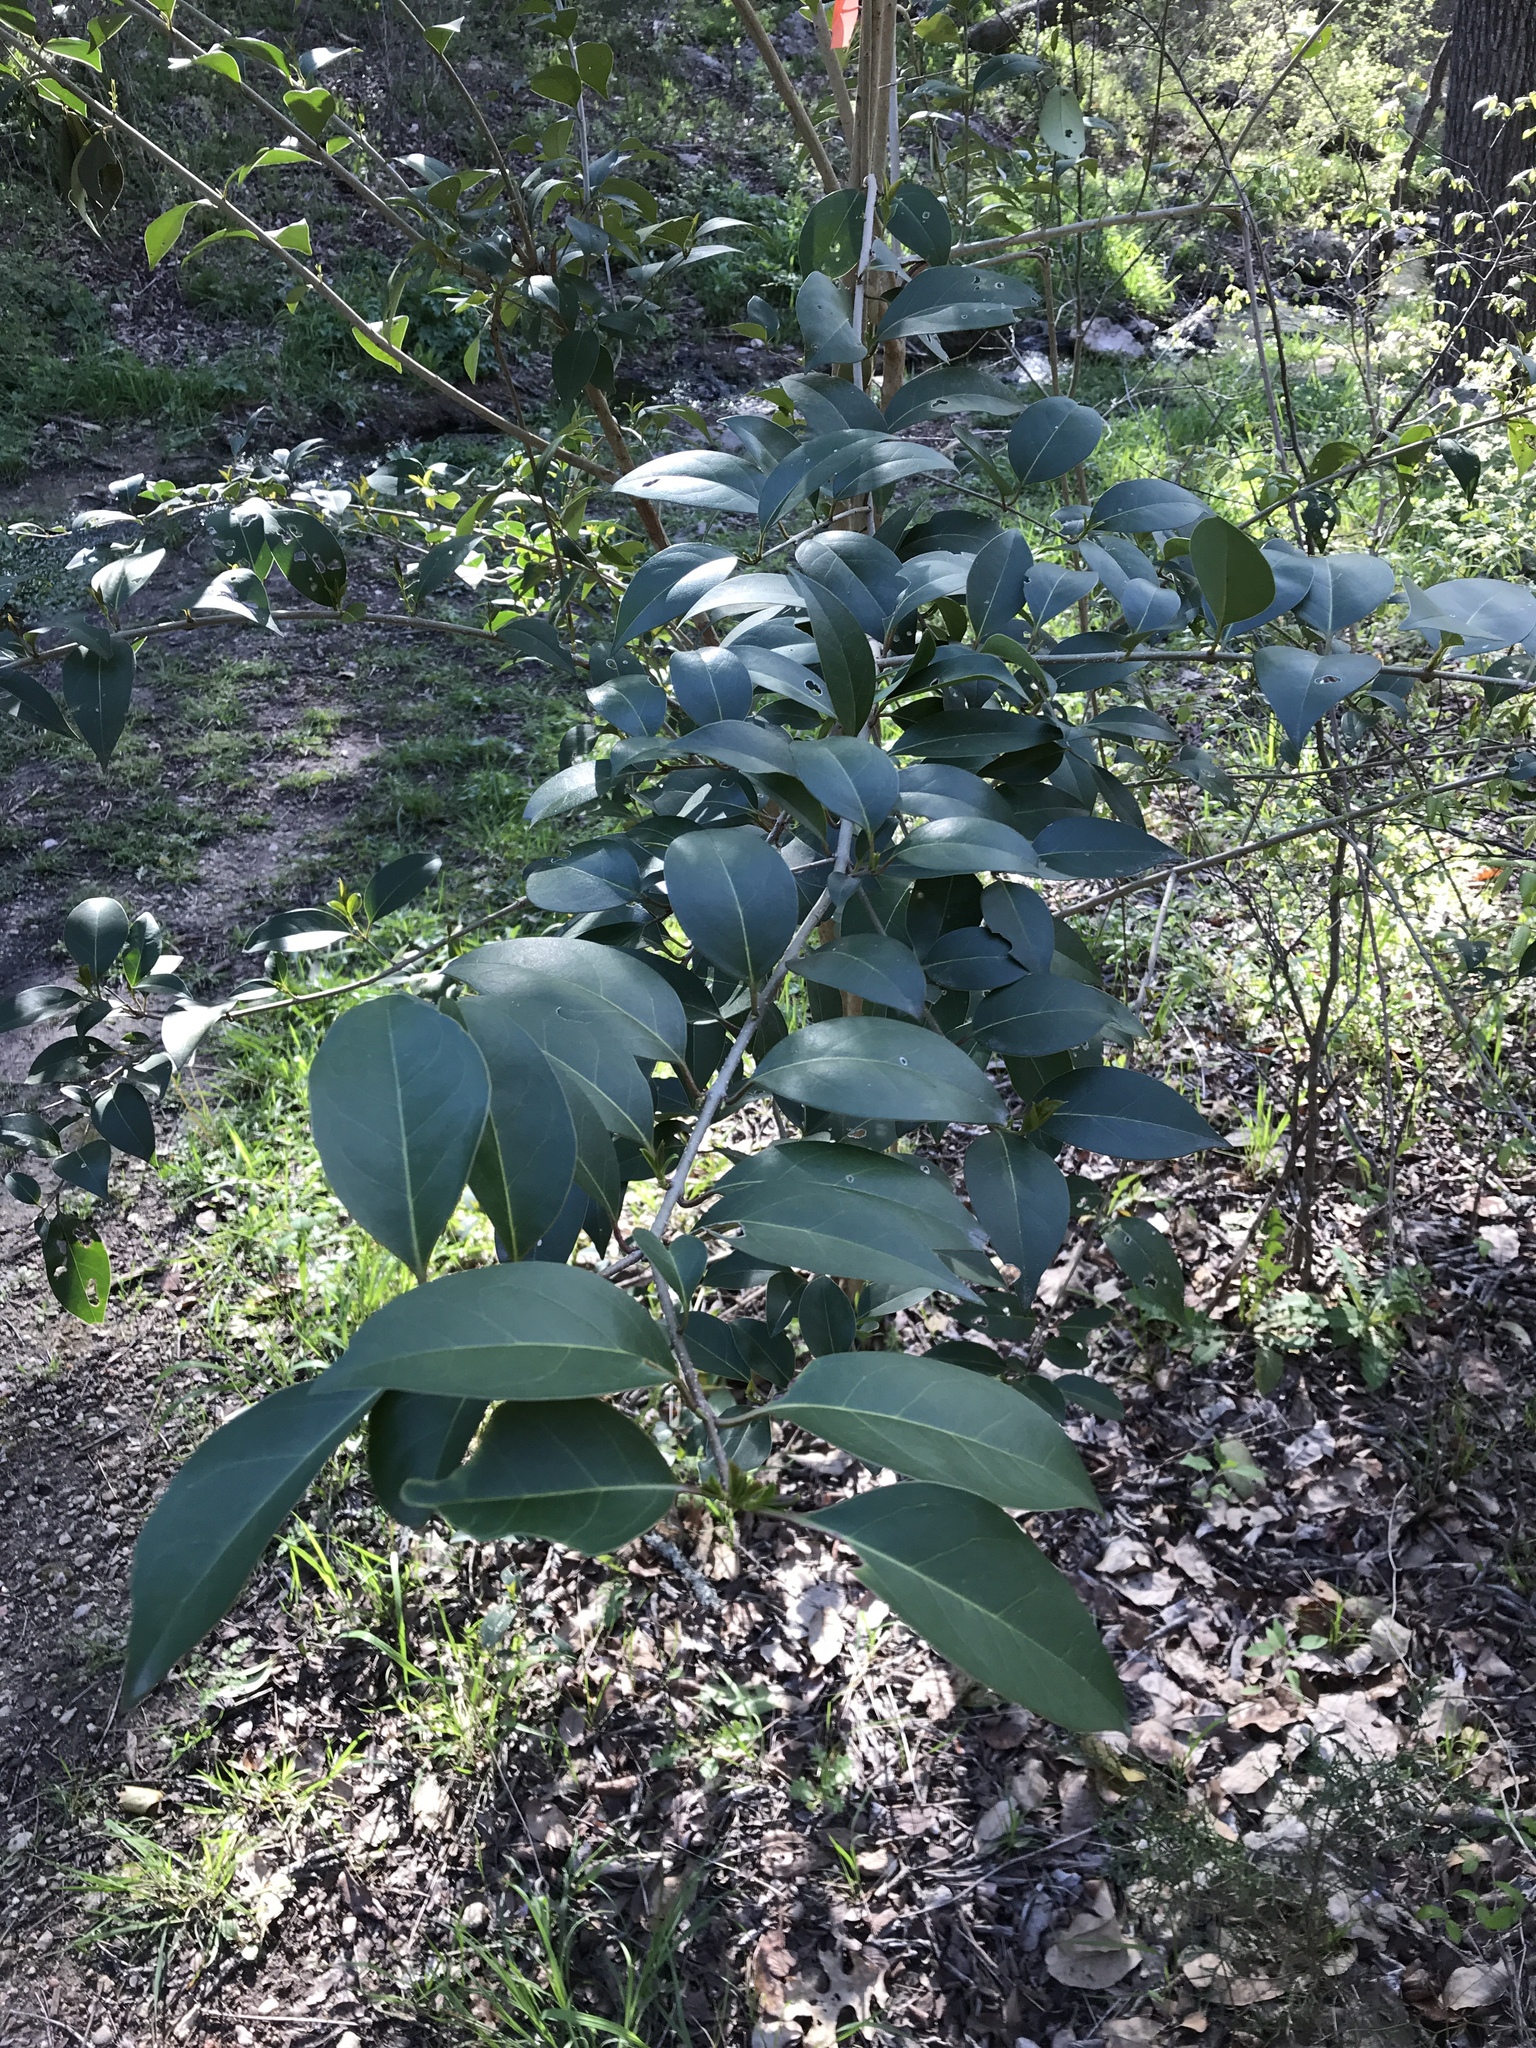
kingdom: Plantae
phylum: Tracheophyta
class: Magnoliopsida
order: Lamiales
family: Oleaceae
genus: Ligustrum
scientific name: Ligustrum lucidum
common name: Glossy privet
